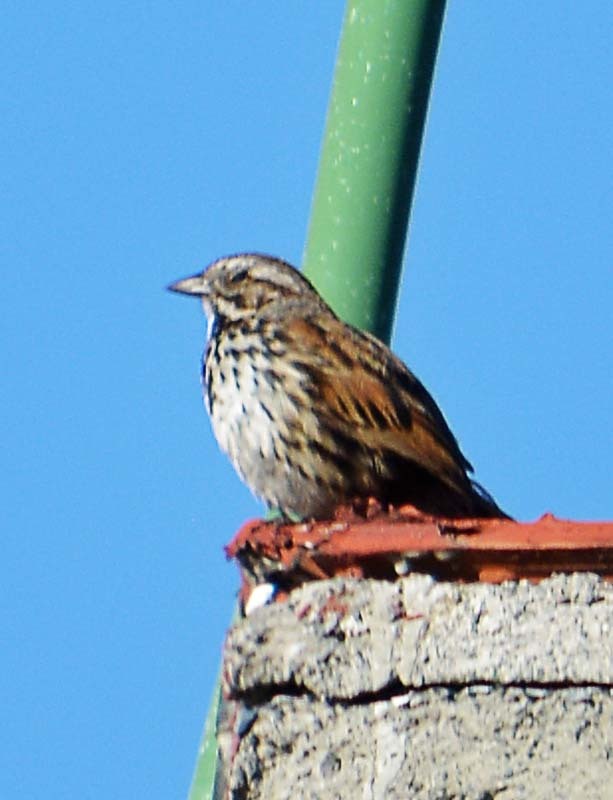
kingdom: Animalia
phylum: Chordata
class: Aves
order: Passeriformes
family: Passerellidae
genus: Melospiza
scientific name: Melospiza melodia
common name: Song sparrow
